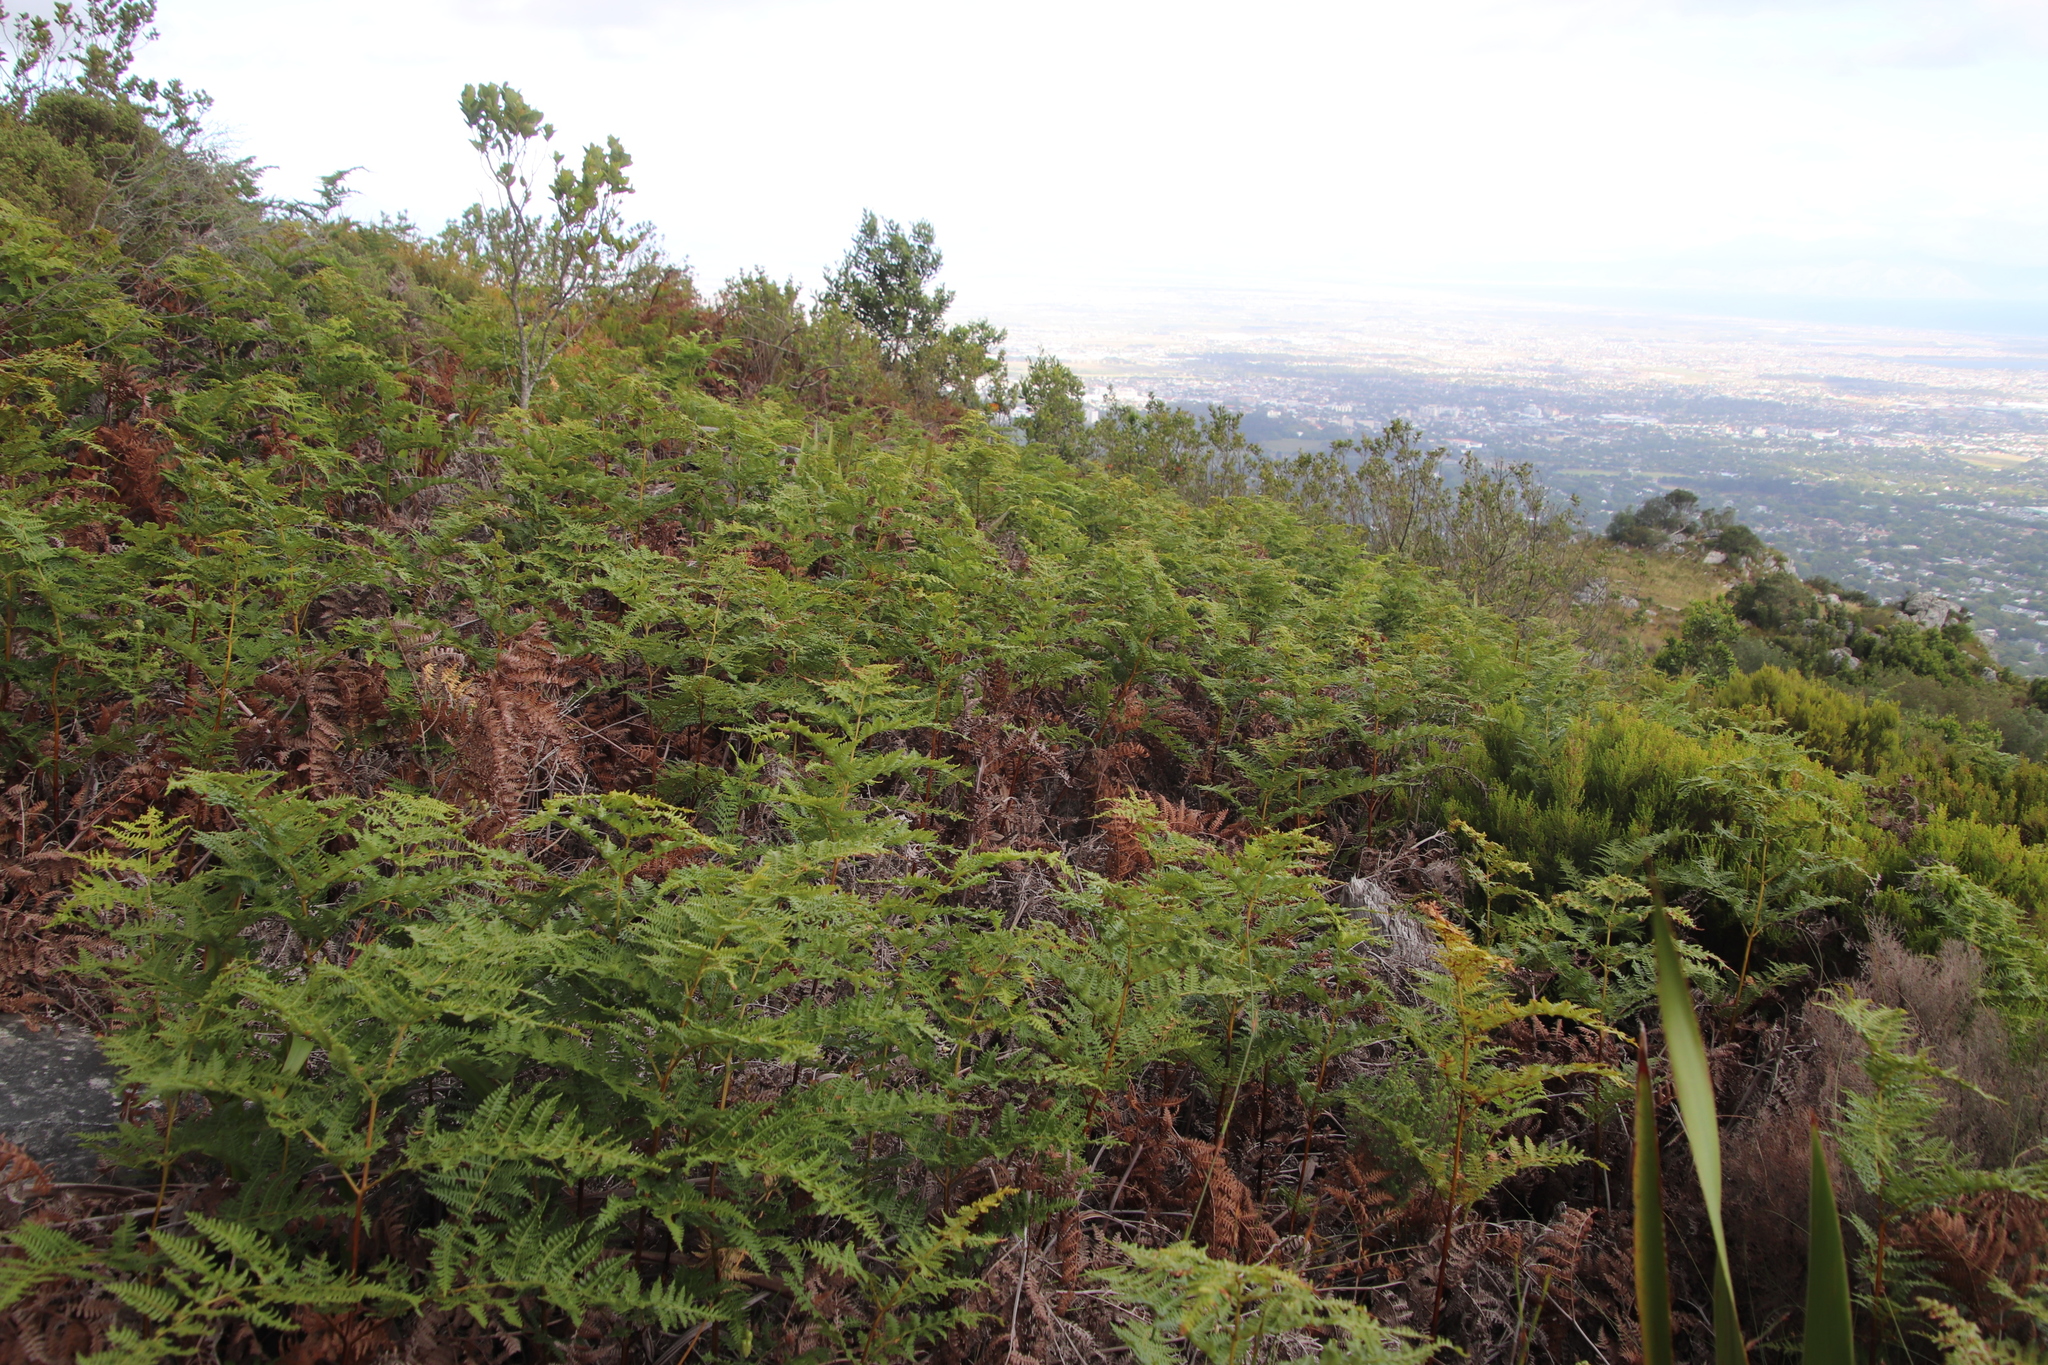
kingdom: Plantae
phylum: Tracheophyta
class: Polypodiopsida
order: Polypodiales
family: Dennstaedtiaceae
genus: Pteridium
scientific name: Pteridium aquilinum
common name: Bracken
